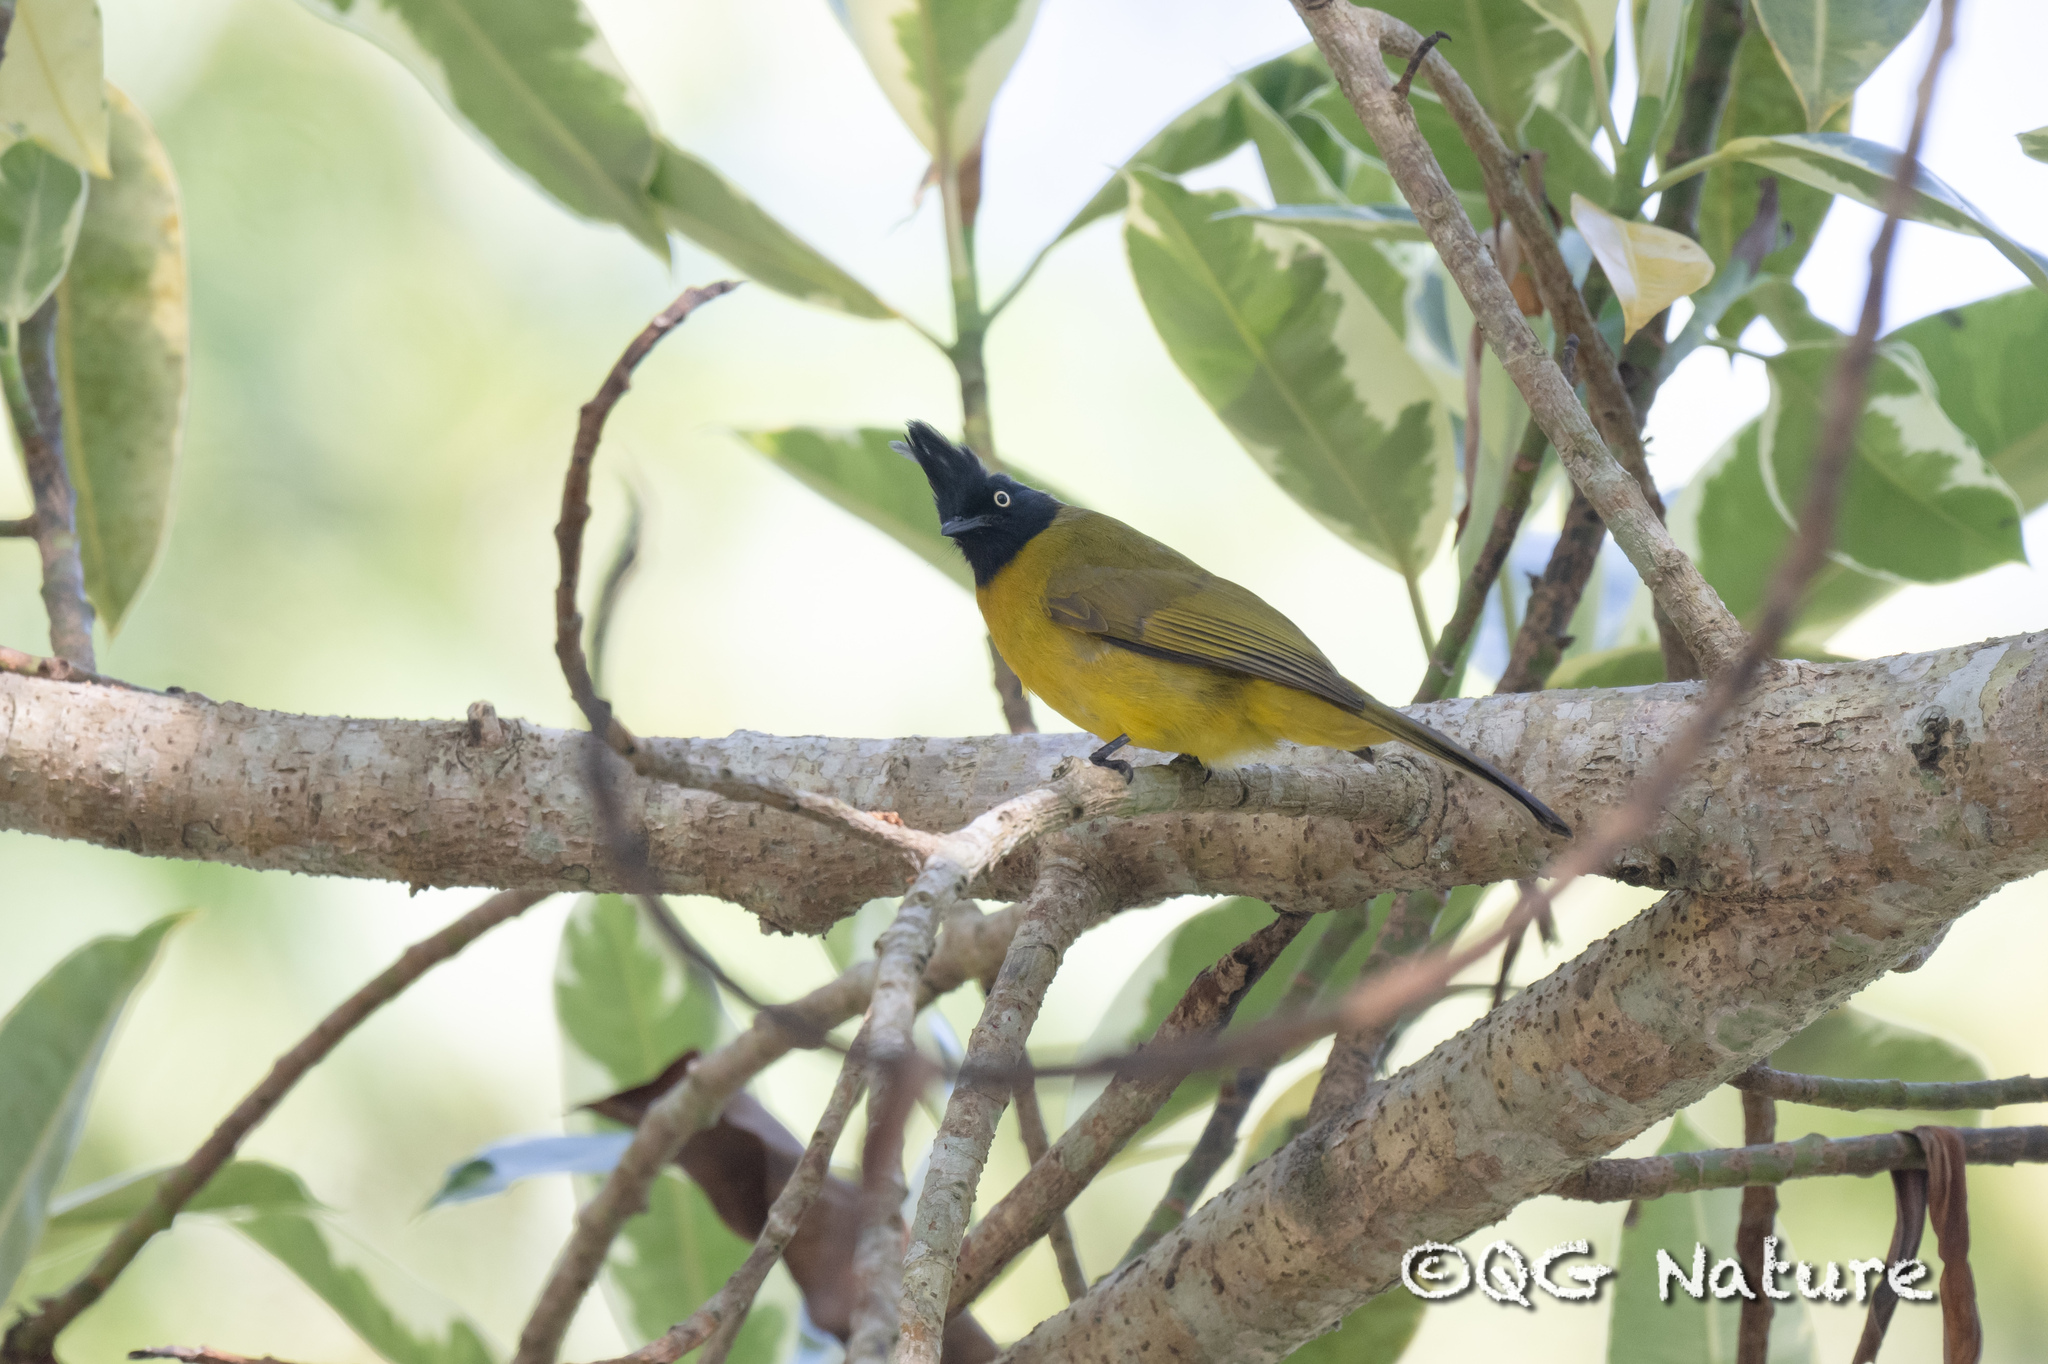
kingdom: Animalia
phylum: Chordata
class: Aves
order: Passeriformes
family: Pycnonotidae
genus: Pycnonotus
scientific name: Pycnonotus flaviventris
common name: Black-crested bulbul
